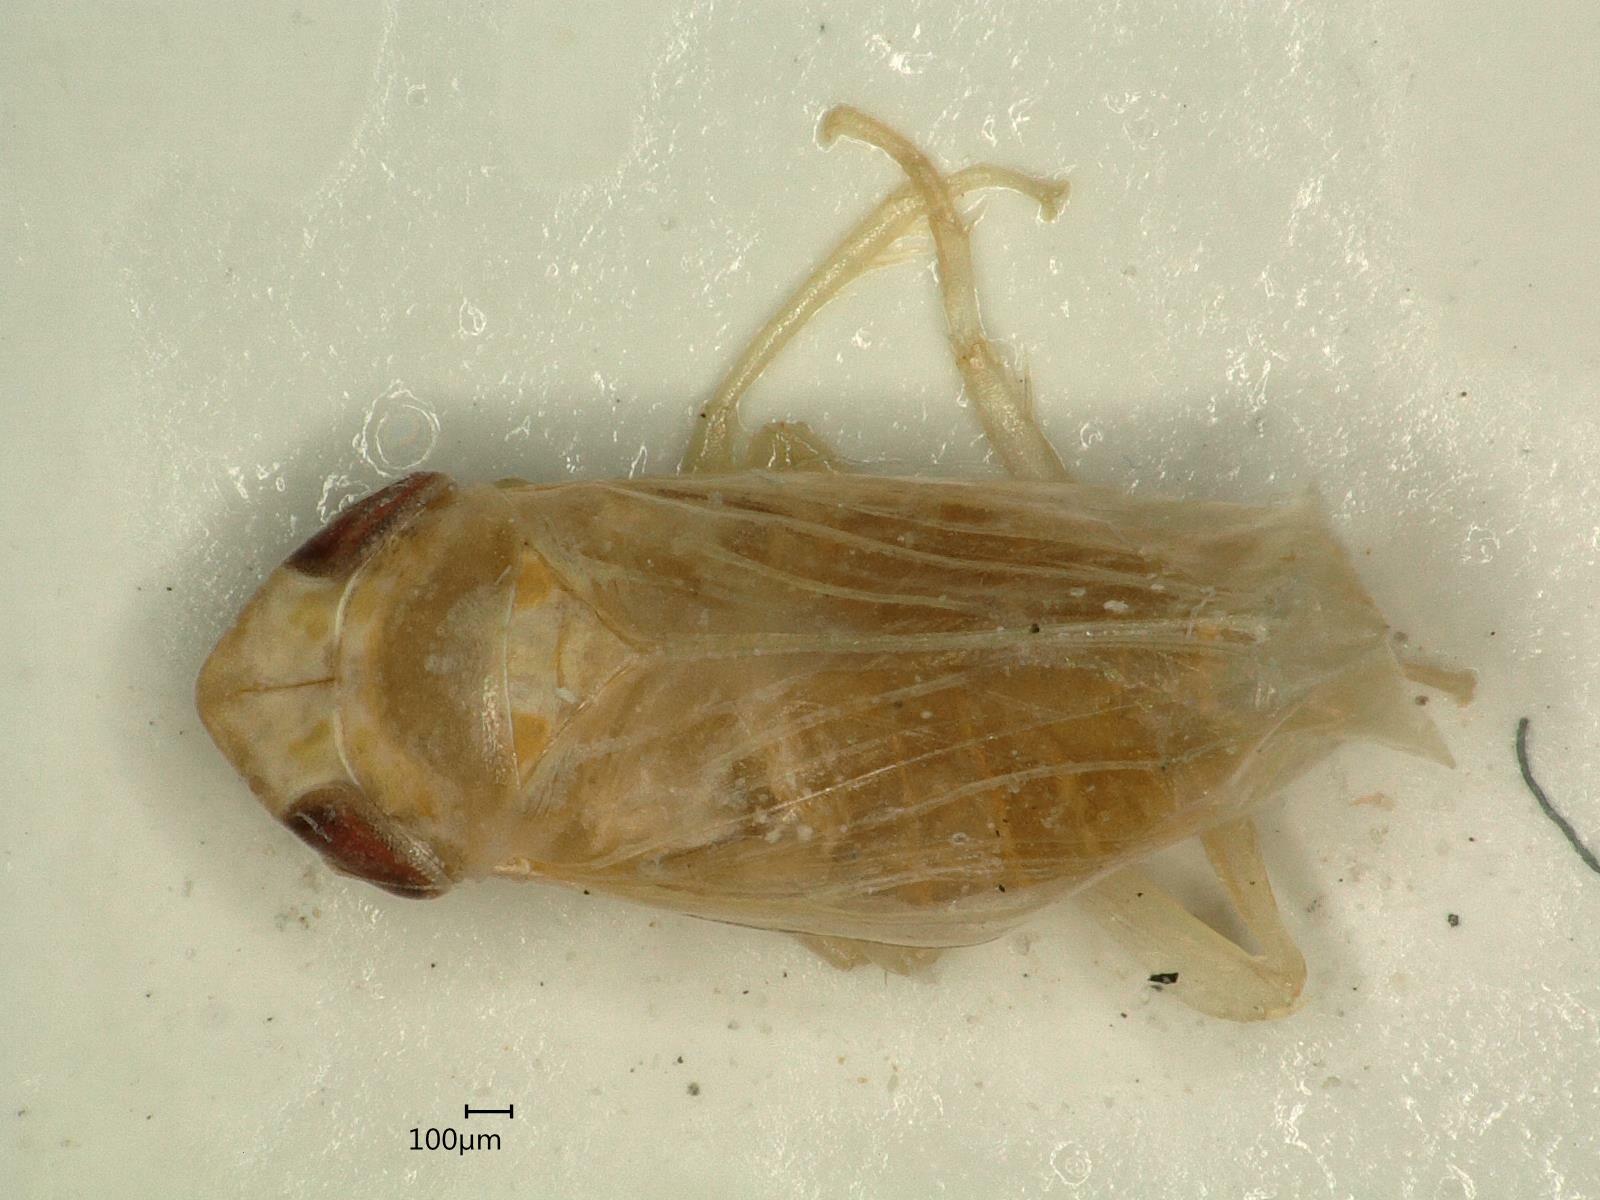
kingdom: Animalia
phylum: Arthropoda
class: Insecta
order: Hemiptera
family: Cicadellidae
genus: Psammotettix
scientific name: Psammotettix confinis
